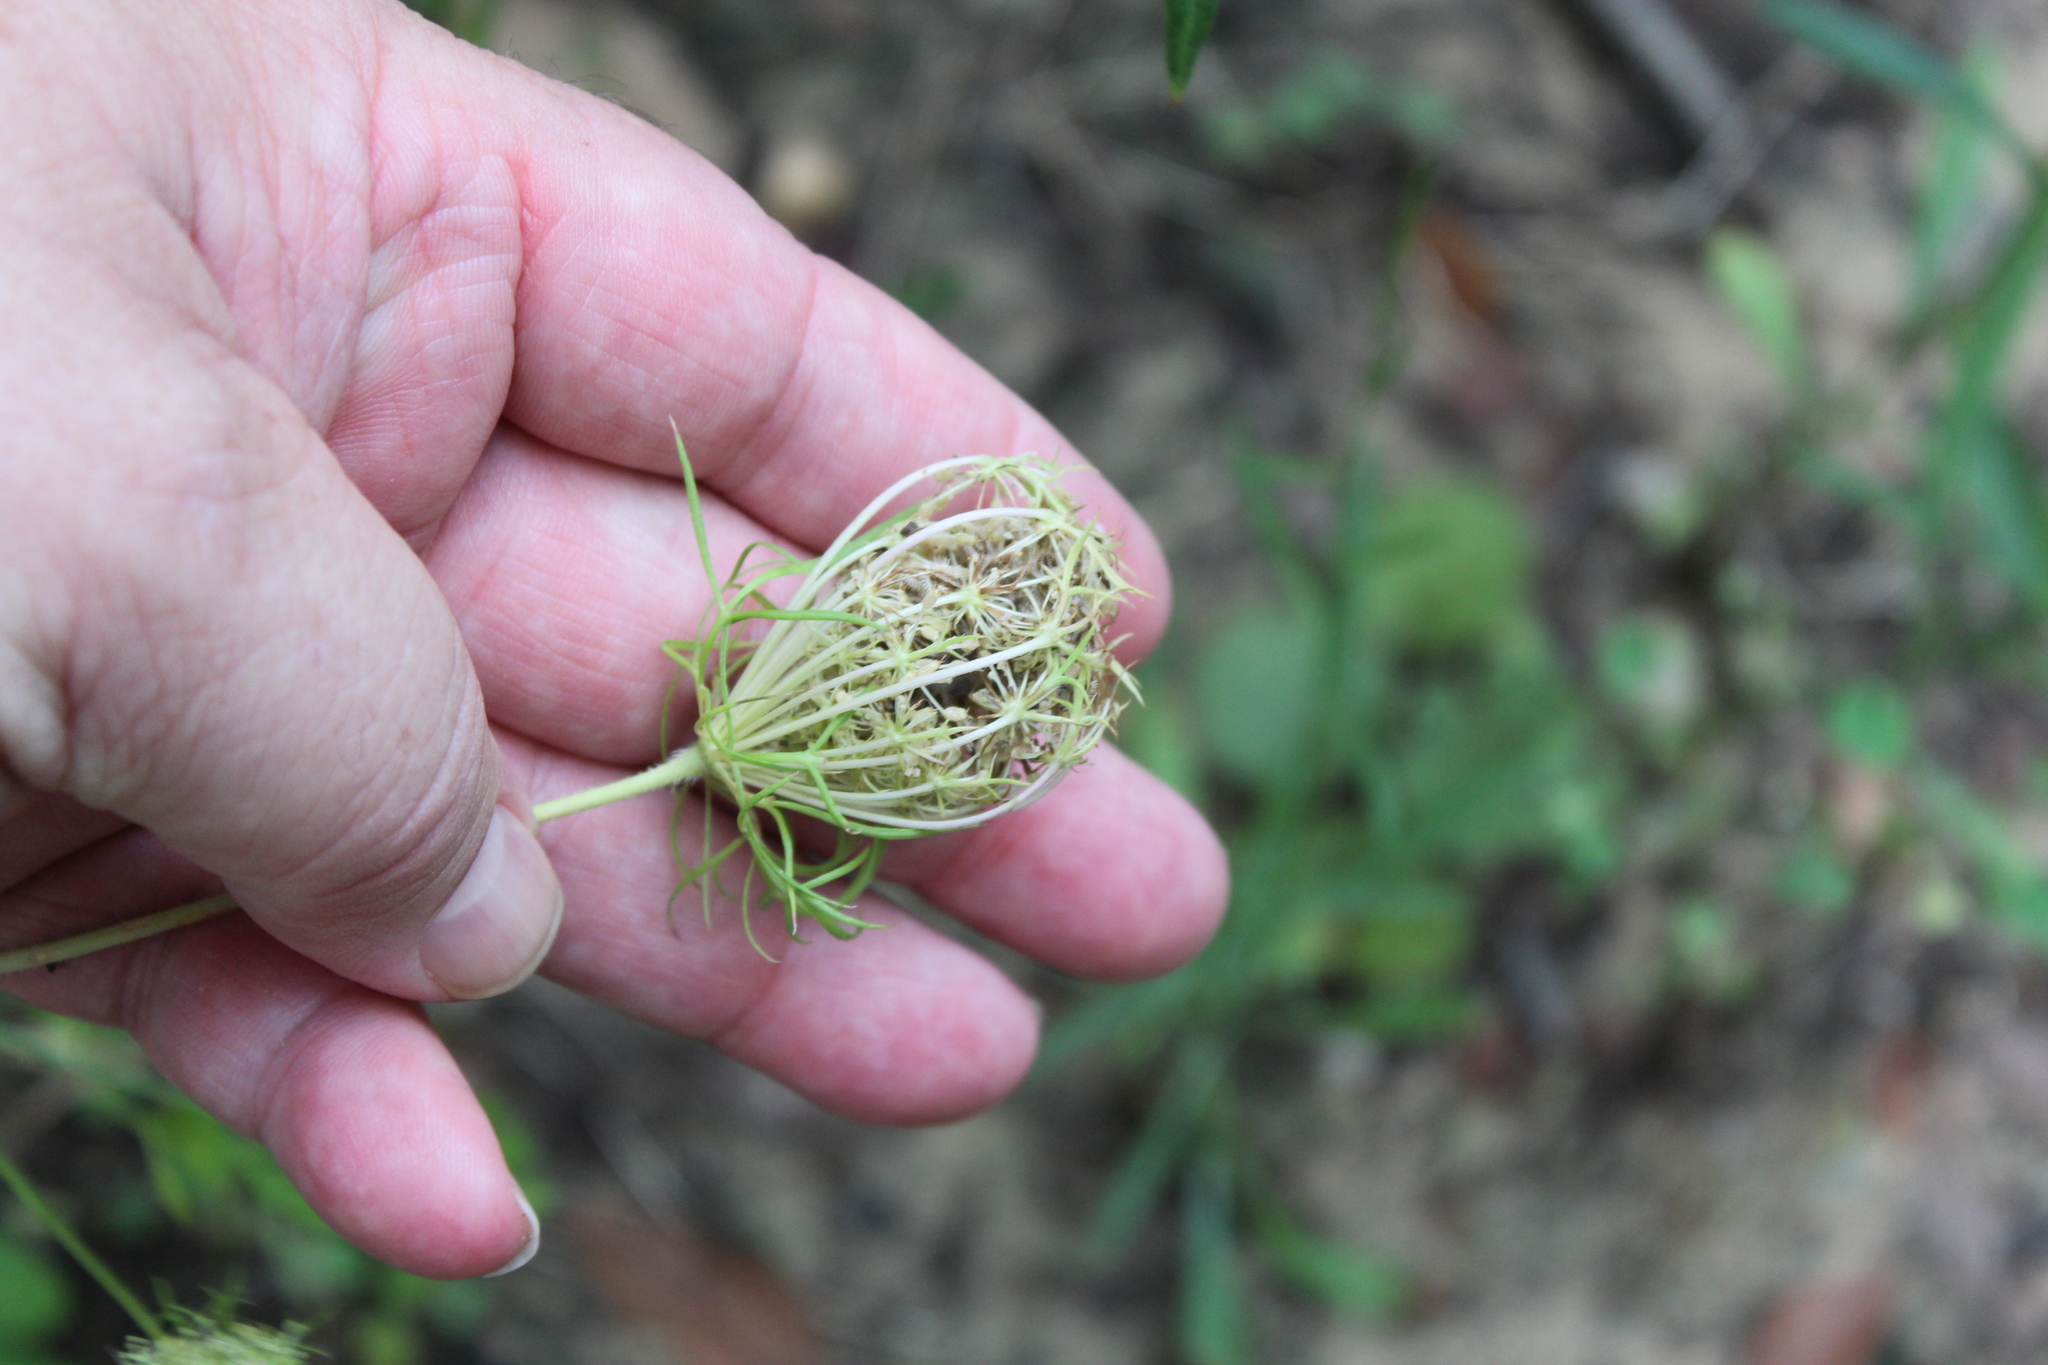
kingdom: Plantae
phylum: Tracheophyta
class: Magnoliopsida
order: Apiales
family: Apiaceae
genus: Daucus
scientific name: Daucus carota
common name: Wild carrot
